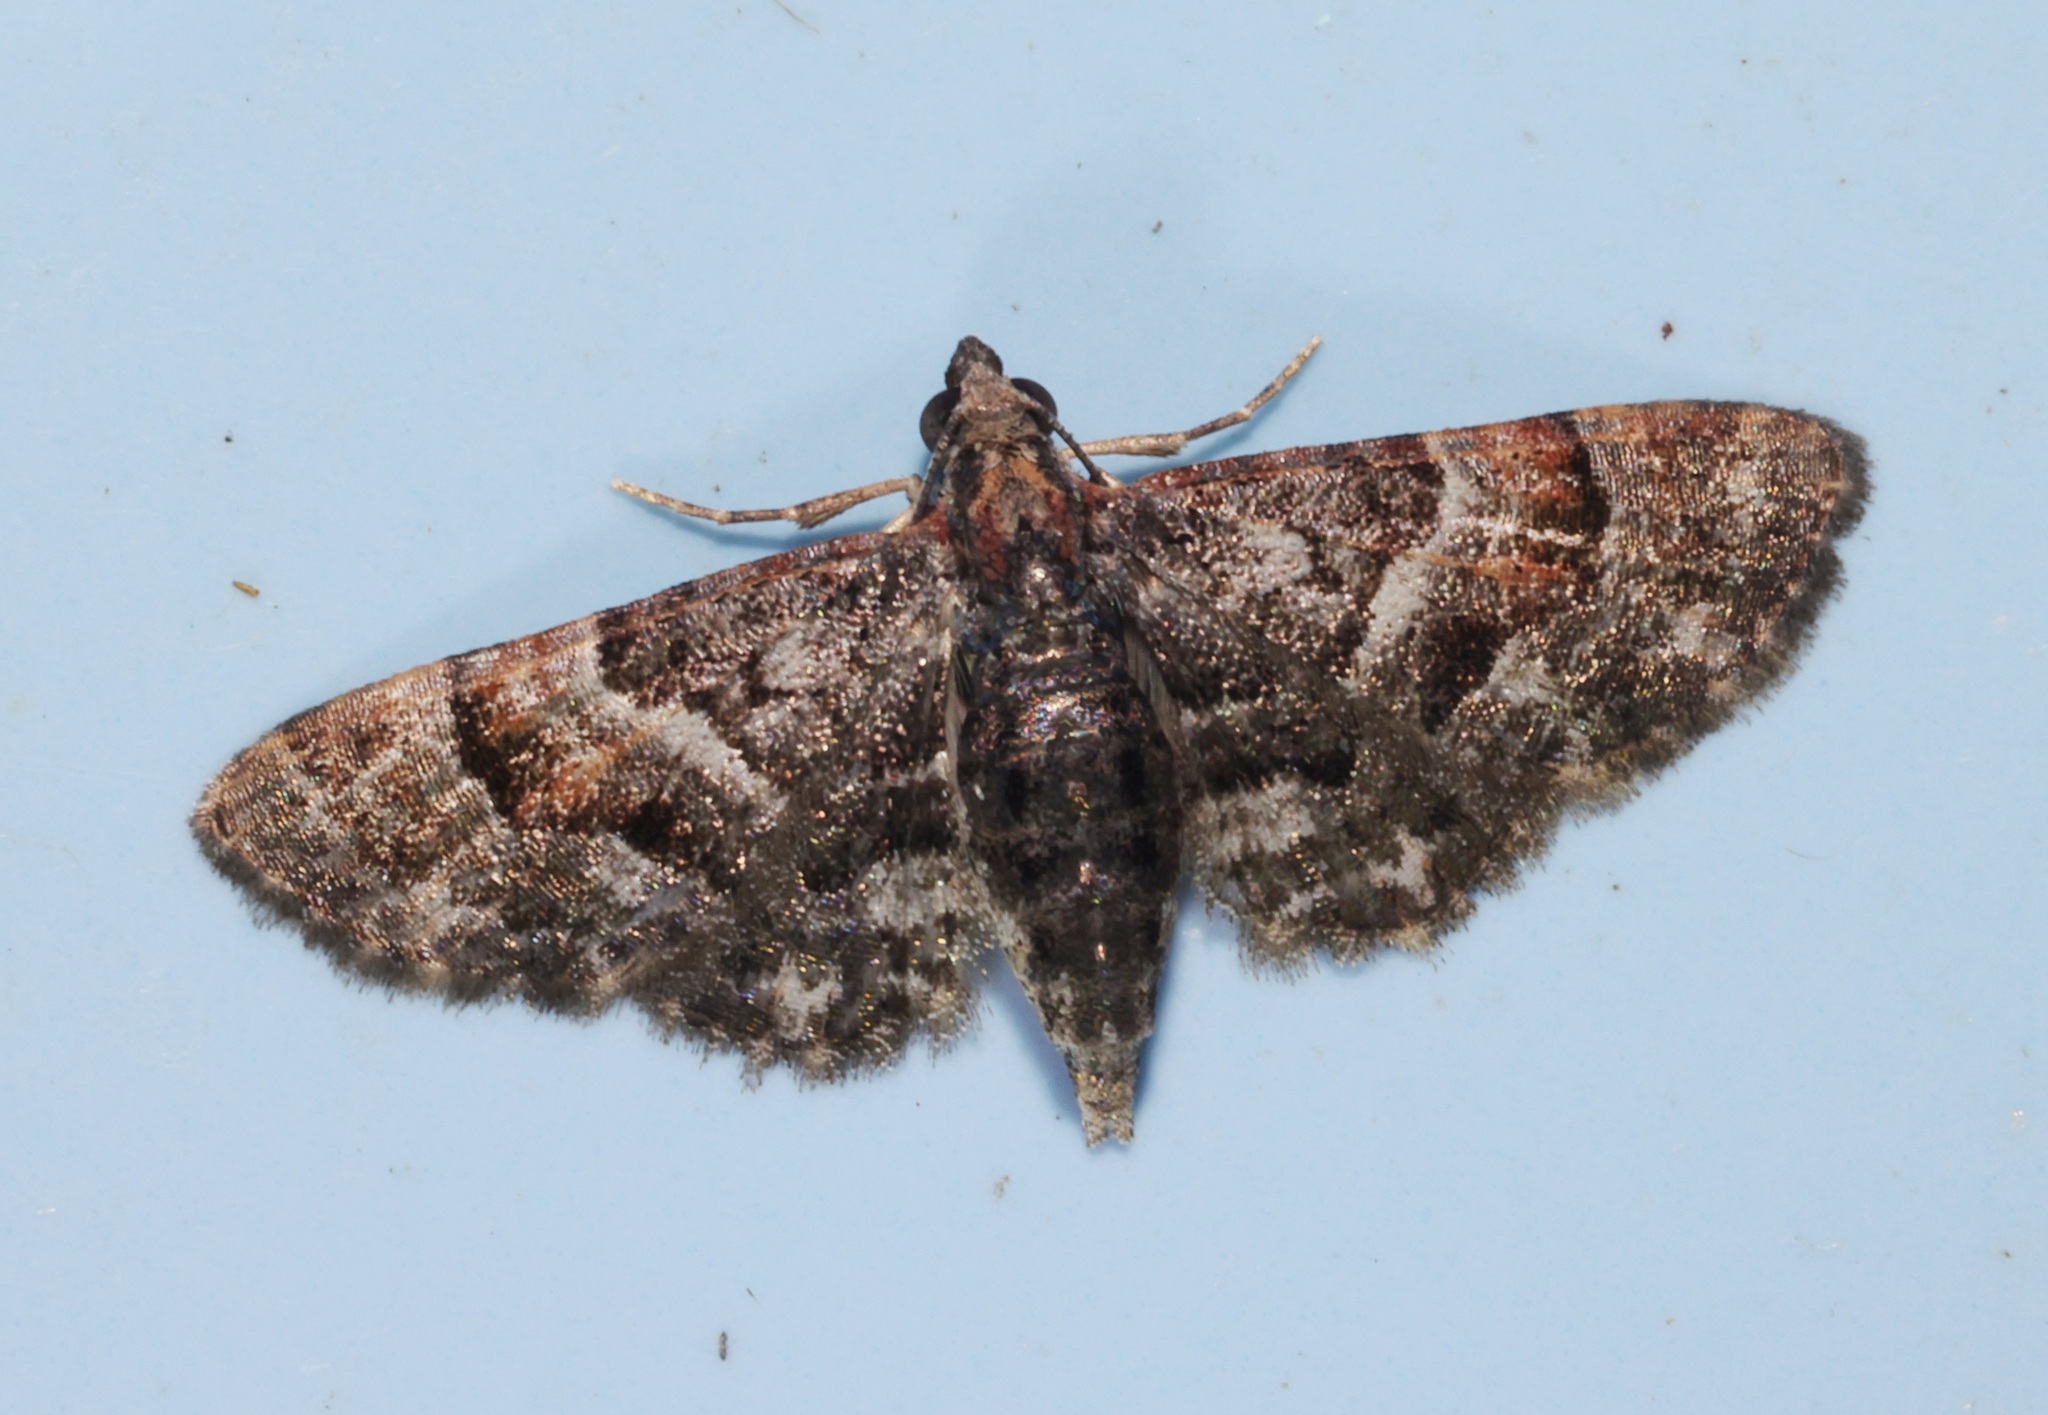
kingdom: Animalia
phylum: Arthropoda
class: Insecta
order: Lepidoptera
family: Geometridae
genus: Casuariclystis
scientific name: Casuariclystis latifascia
